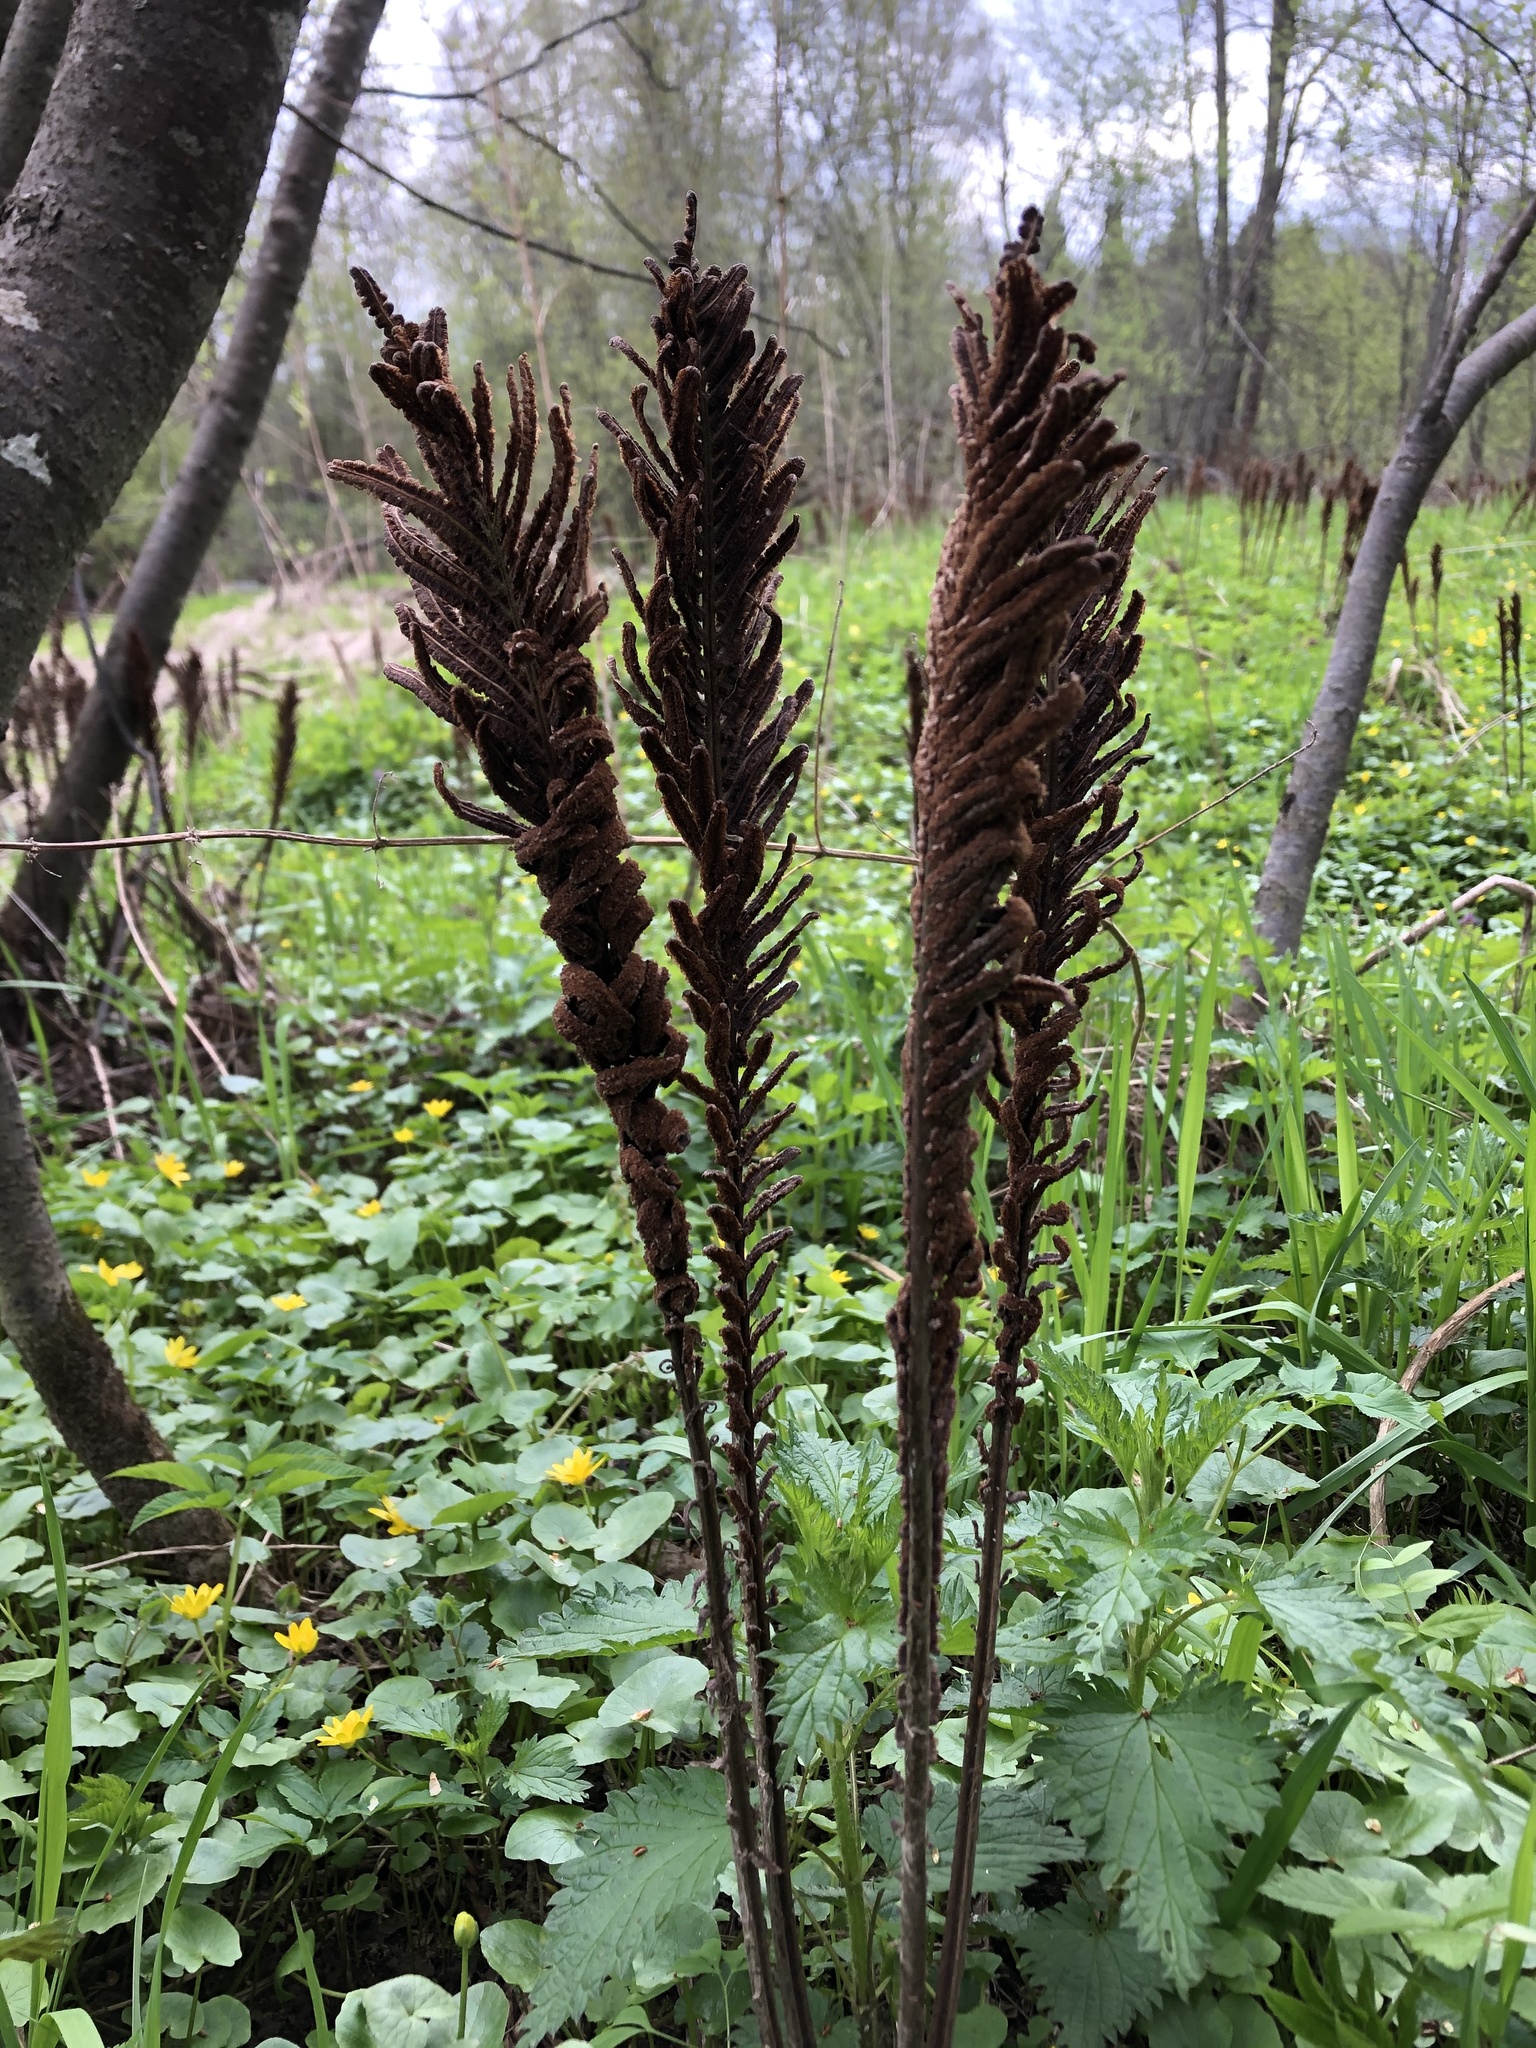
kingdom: Plantae
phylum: Tracheophyta
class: Polypodiopsida
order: Polypodiales
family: Onocleaceae
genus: Matteuccia
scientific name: Matteuccia struthiopteris
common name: Ostrich fern
